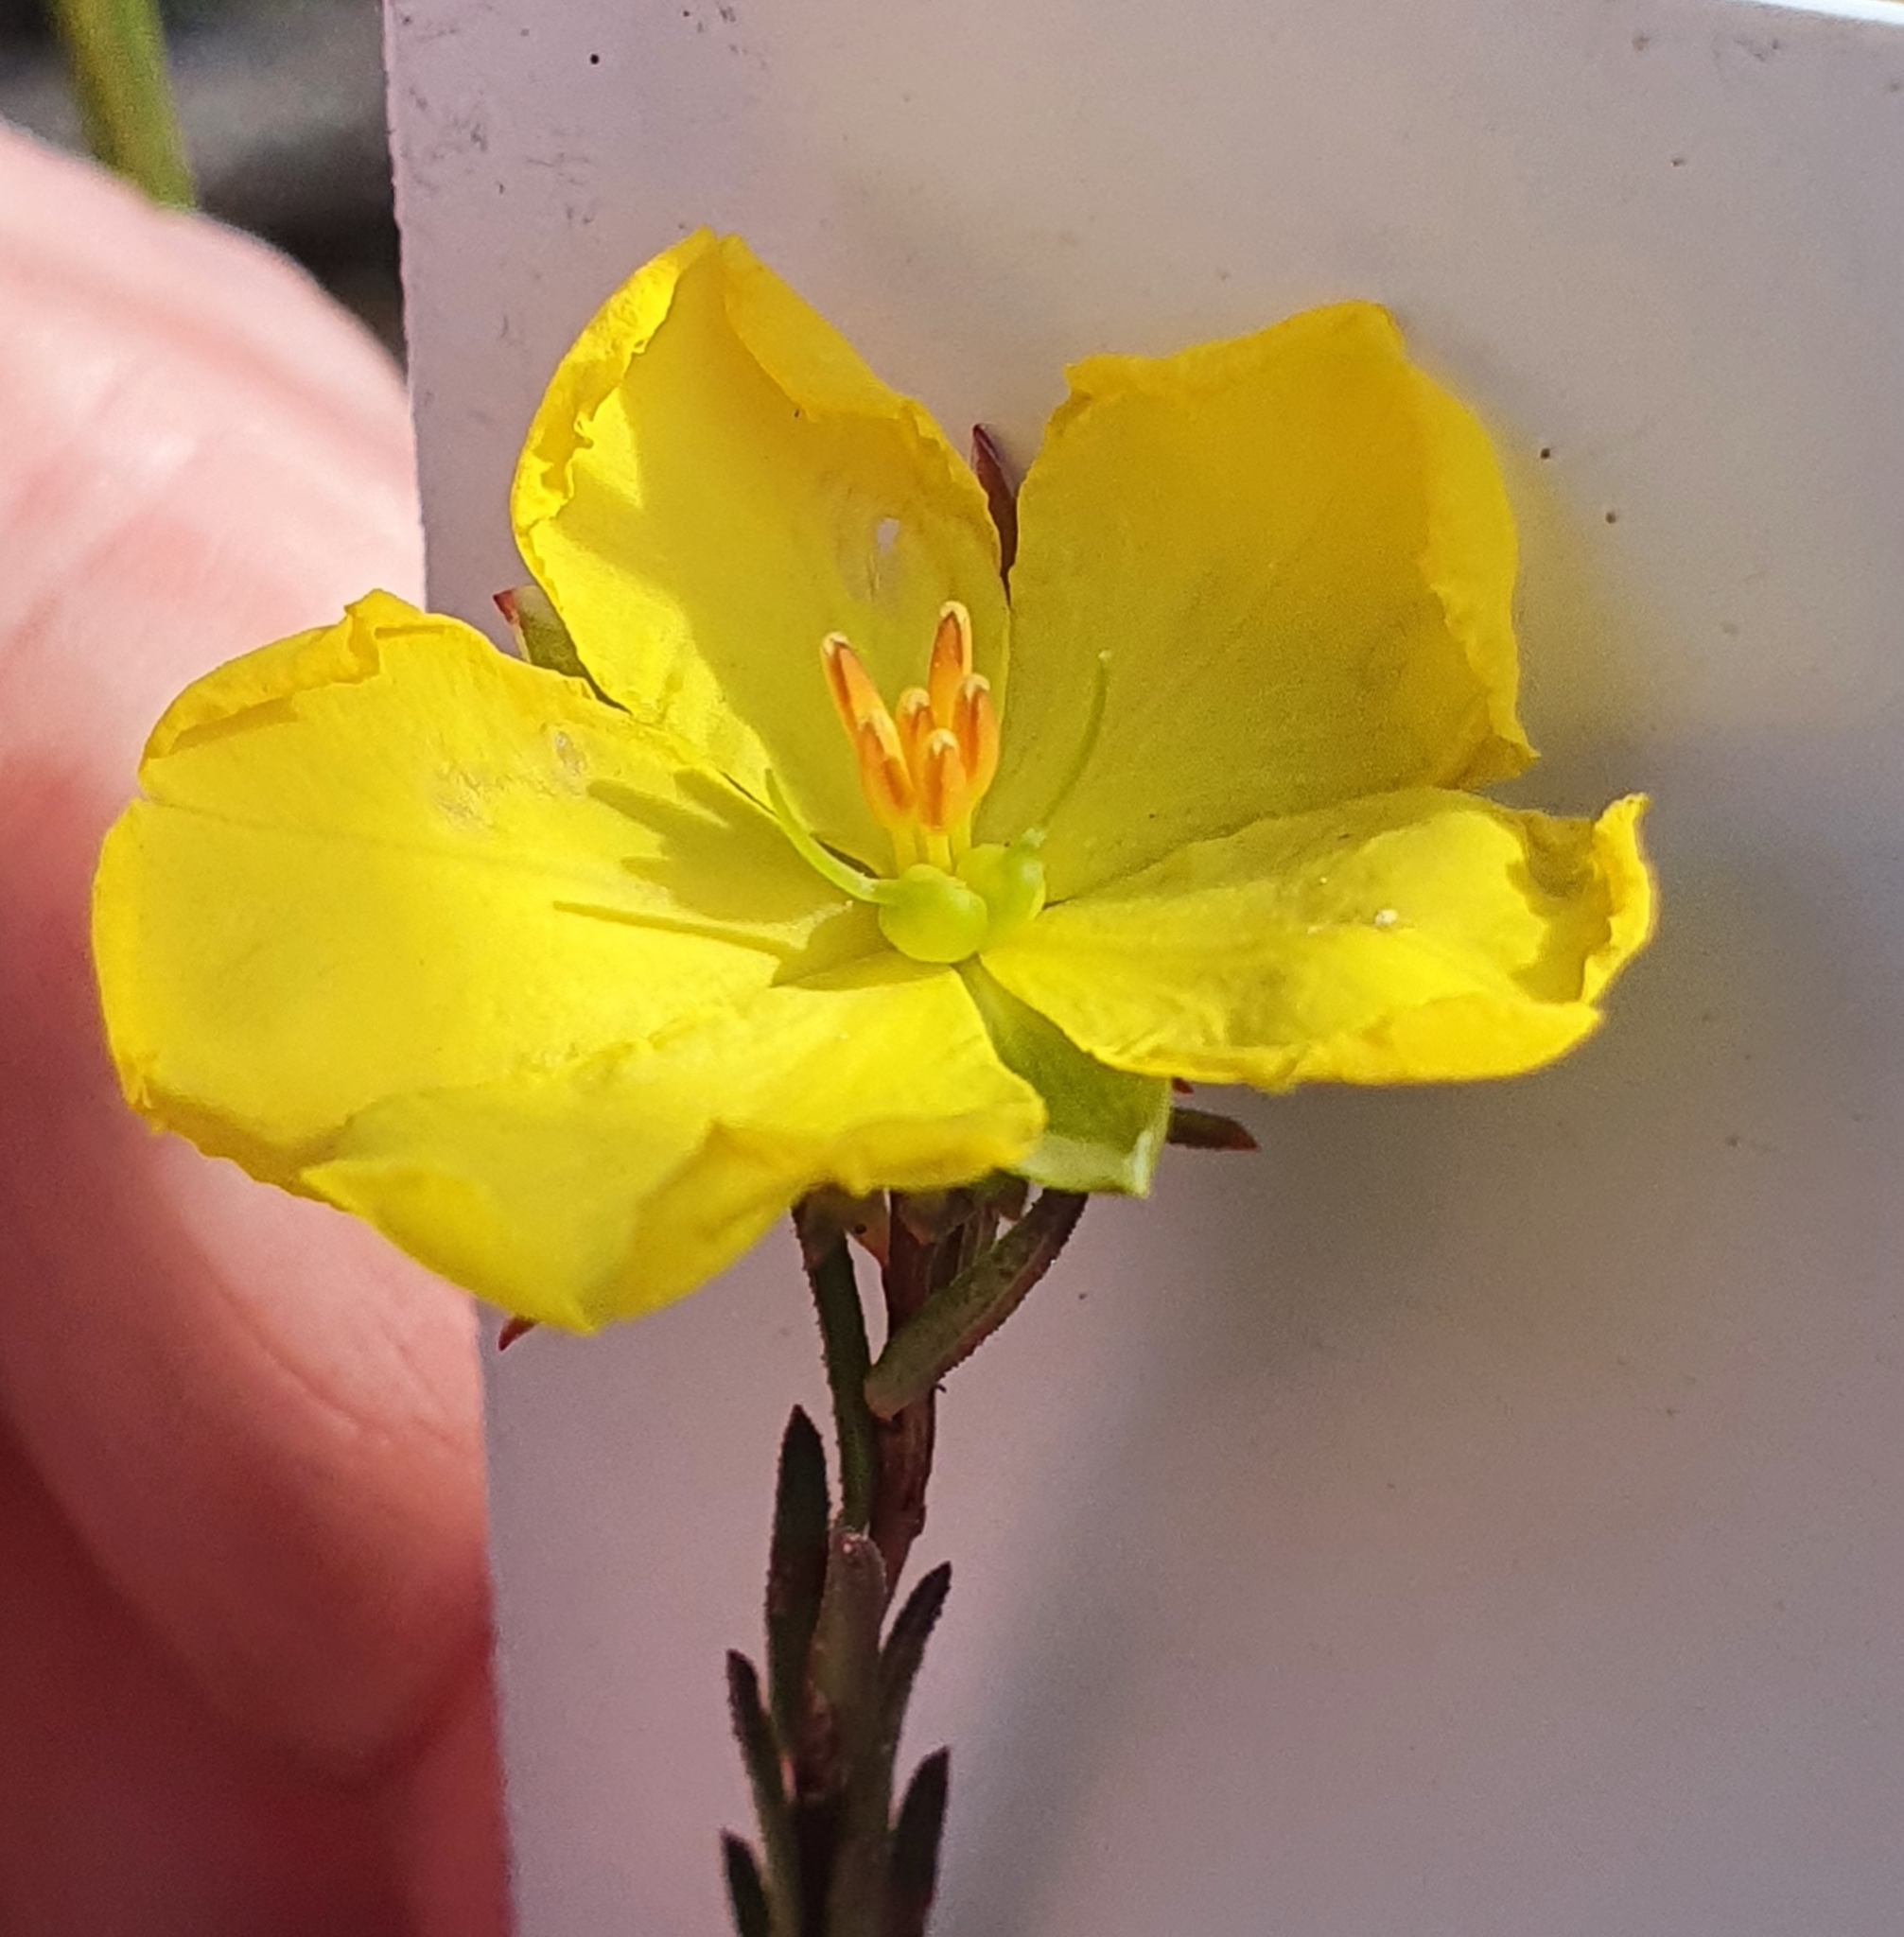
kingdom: Plantae
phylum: Tracheophyta
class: Magnoliopsida
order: Dilleniales
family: Dilleniaceae
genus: Hibbertia
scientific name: Hibbertia cistiflora
